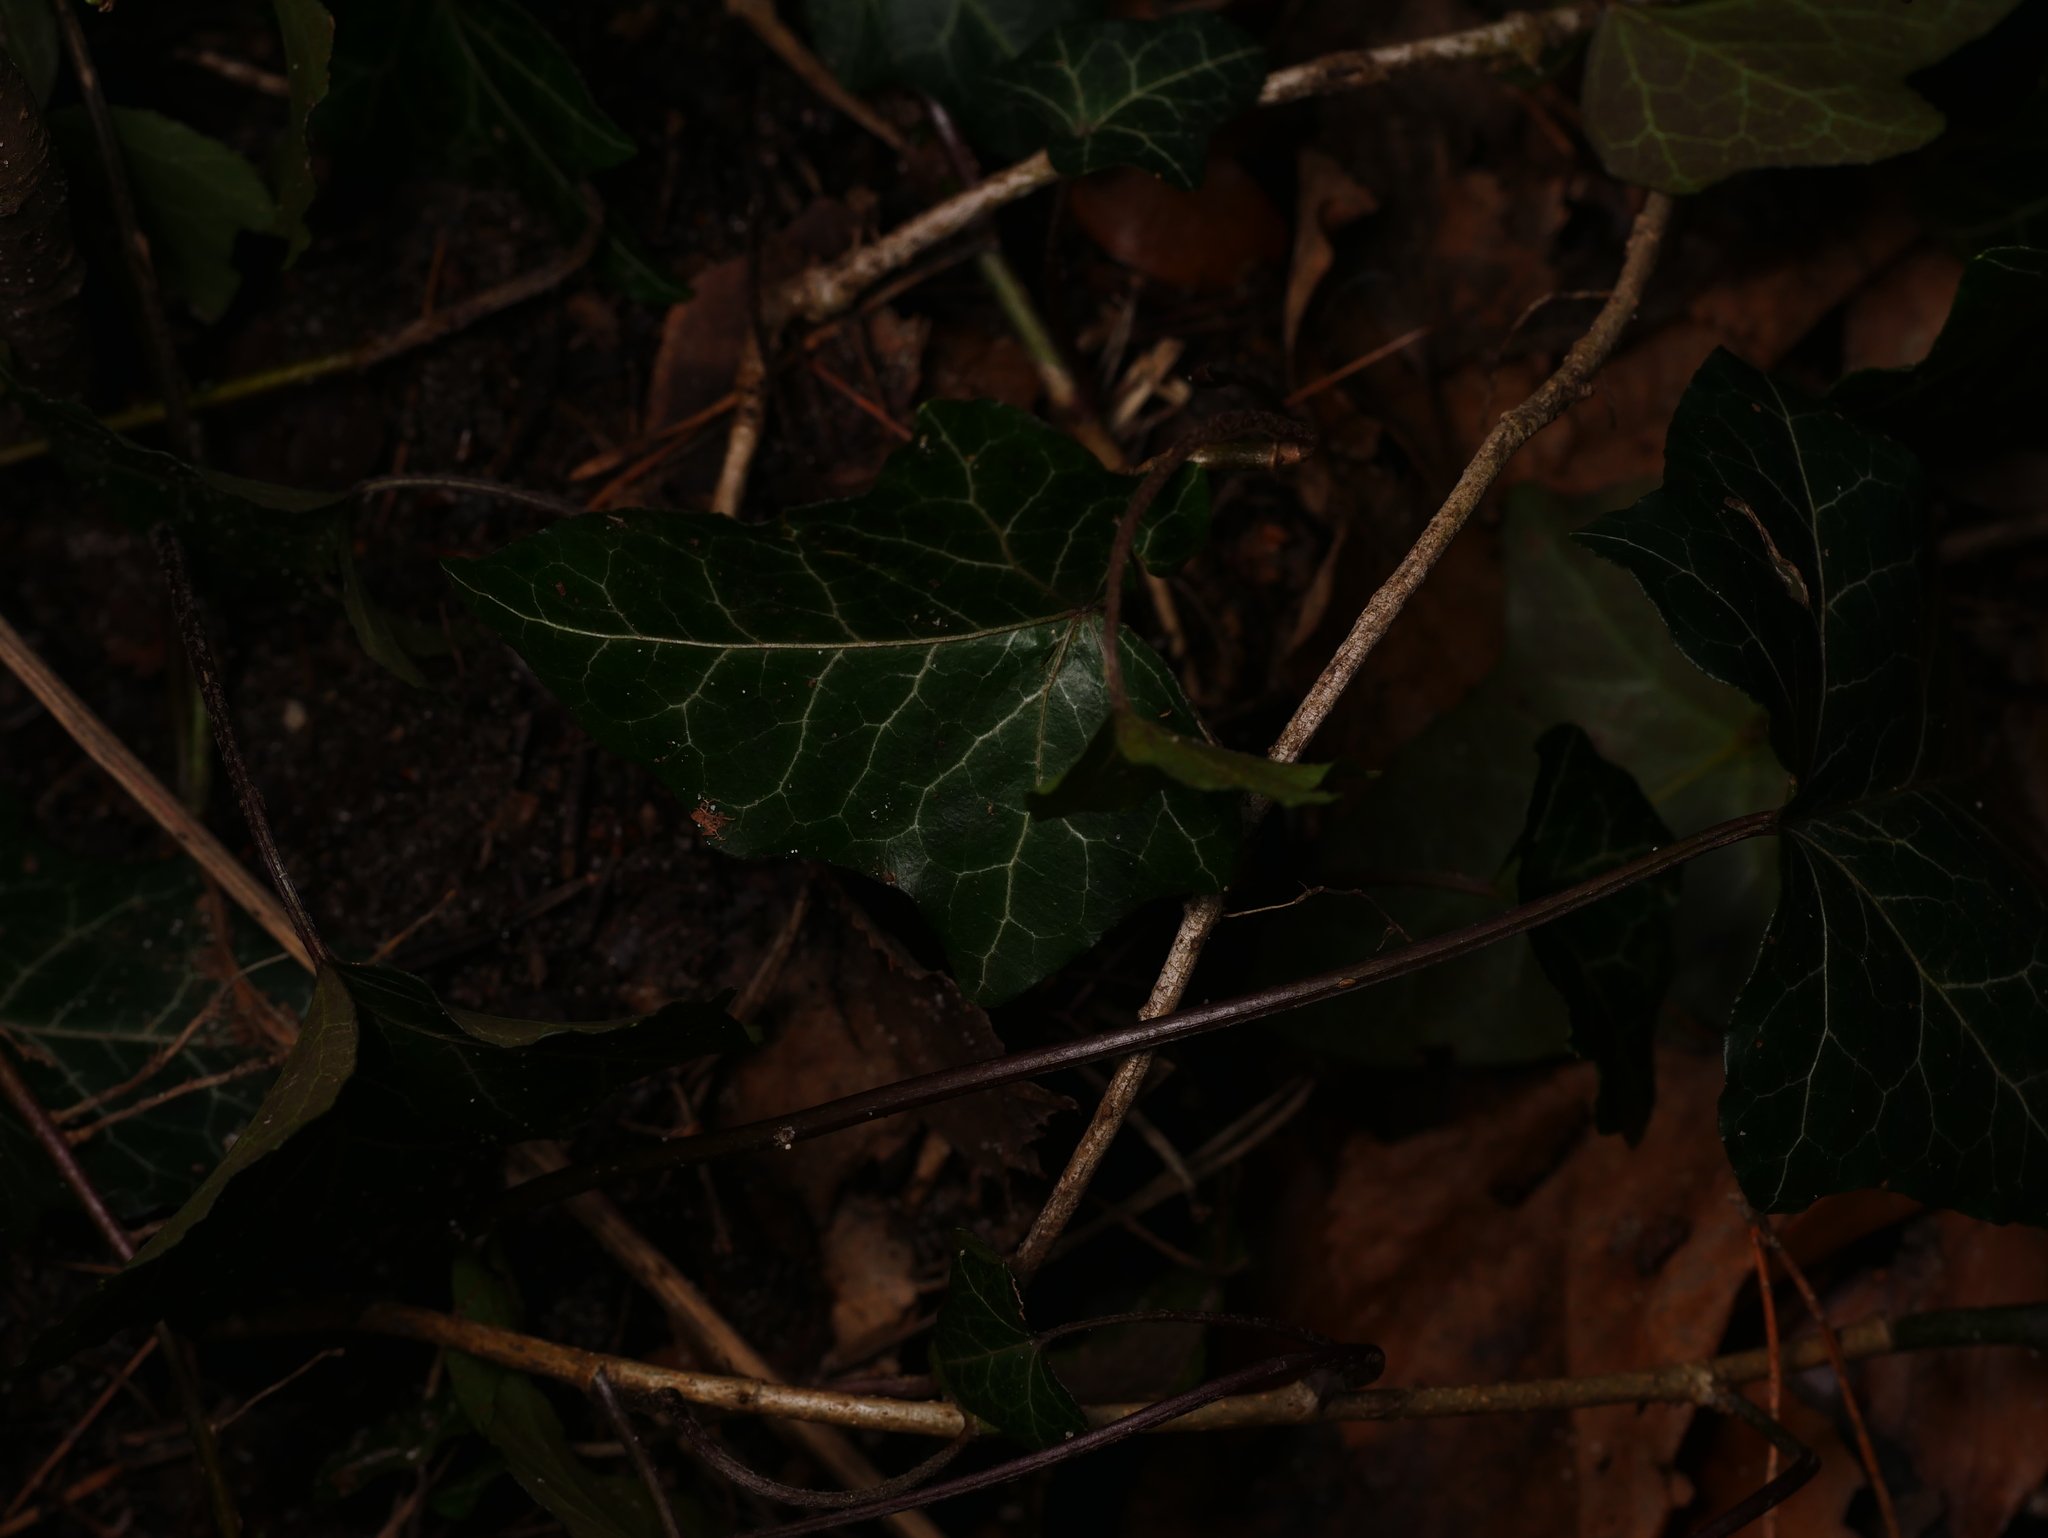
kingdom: Plantae
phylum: Tracheophyta
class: Magnoliopsida
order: Apiales
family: Araliaceae
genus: Hedera
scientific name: Hedera helix
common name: Ivy
